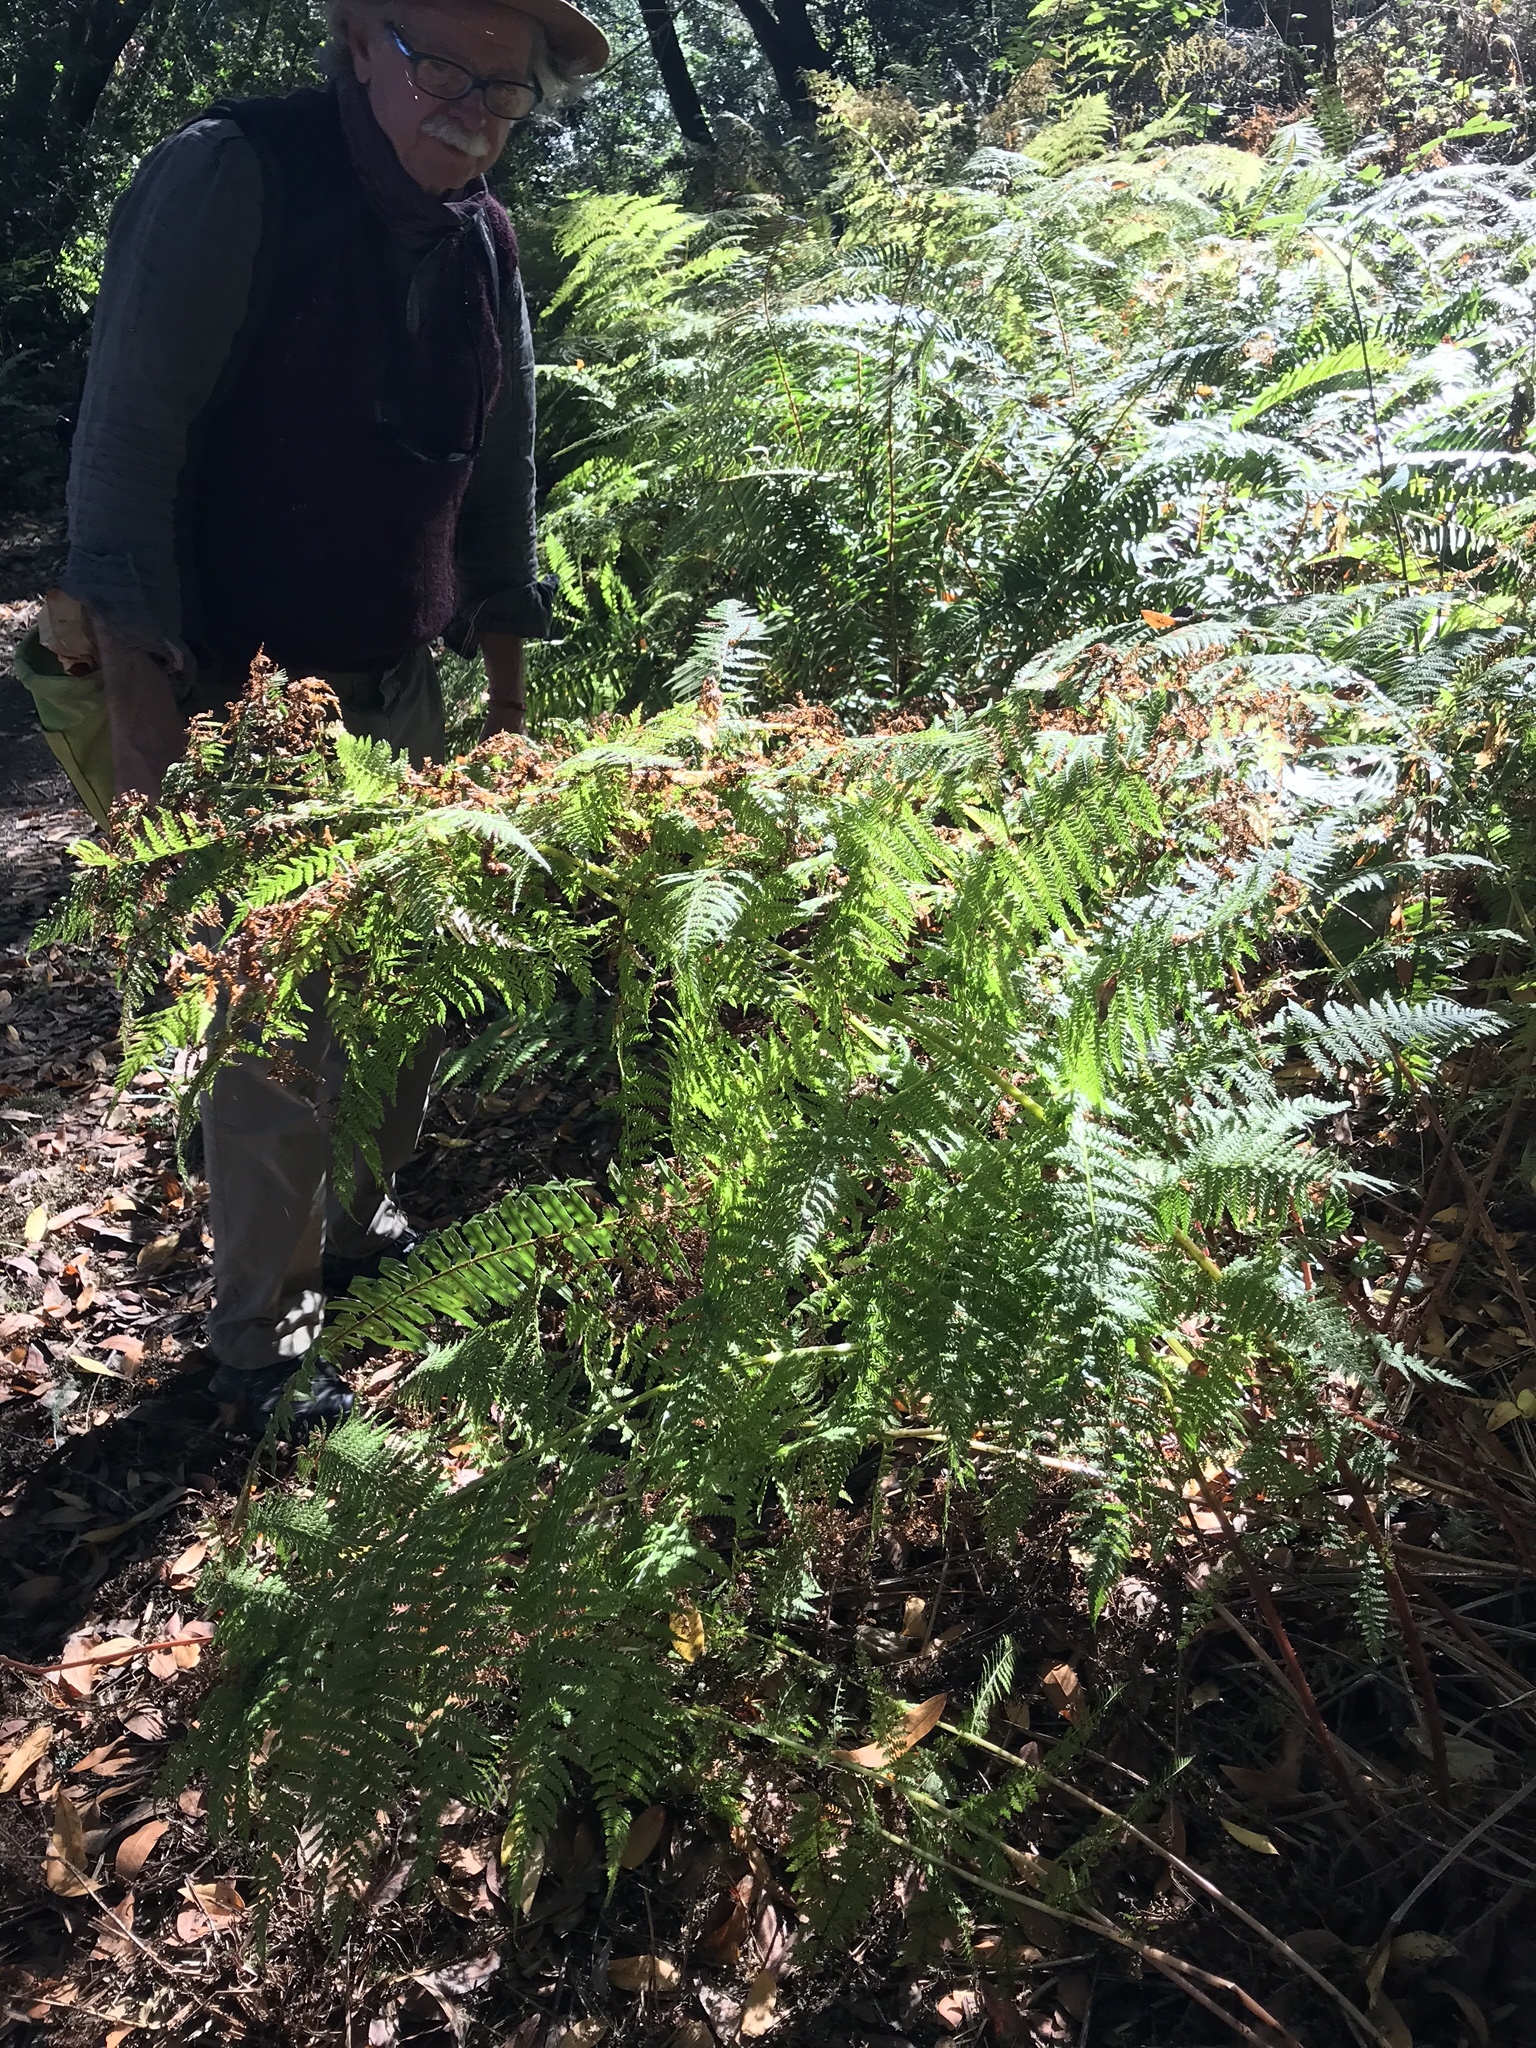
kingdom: Plantae
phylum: Tracheophyta
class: Polypodiopsida
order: Polypodiales
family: Athyriaceae
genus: Athyrium
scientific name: Athyrium filix-femina
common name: Lady fern
